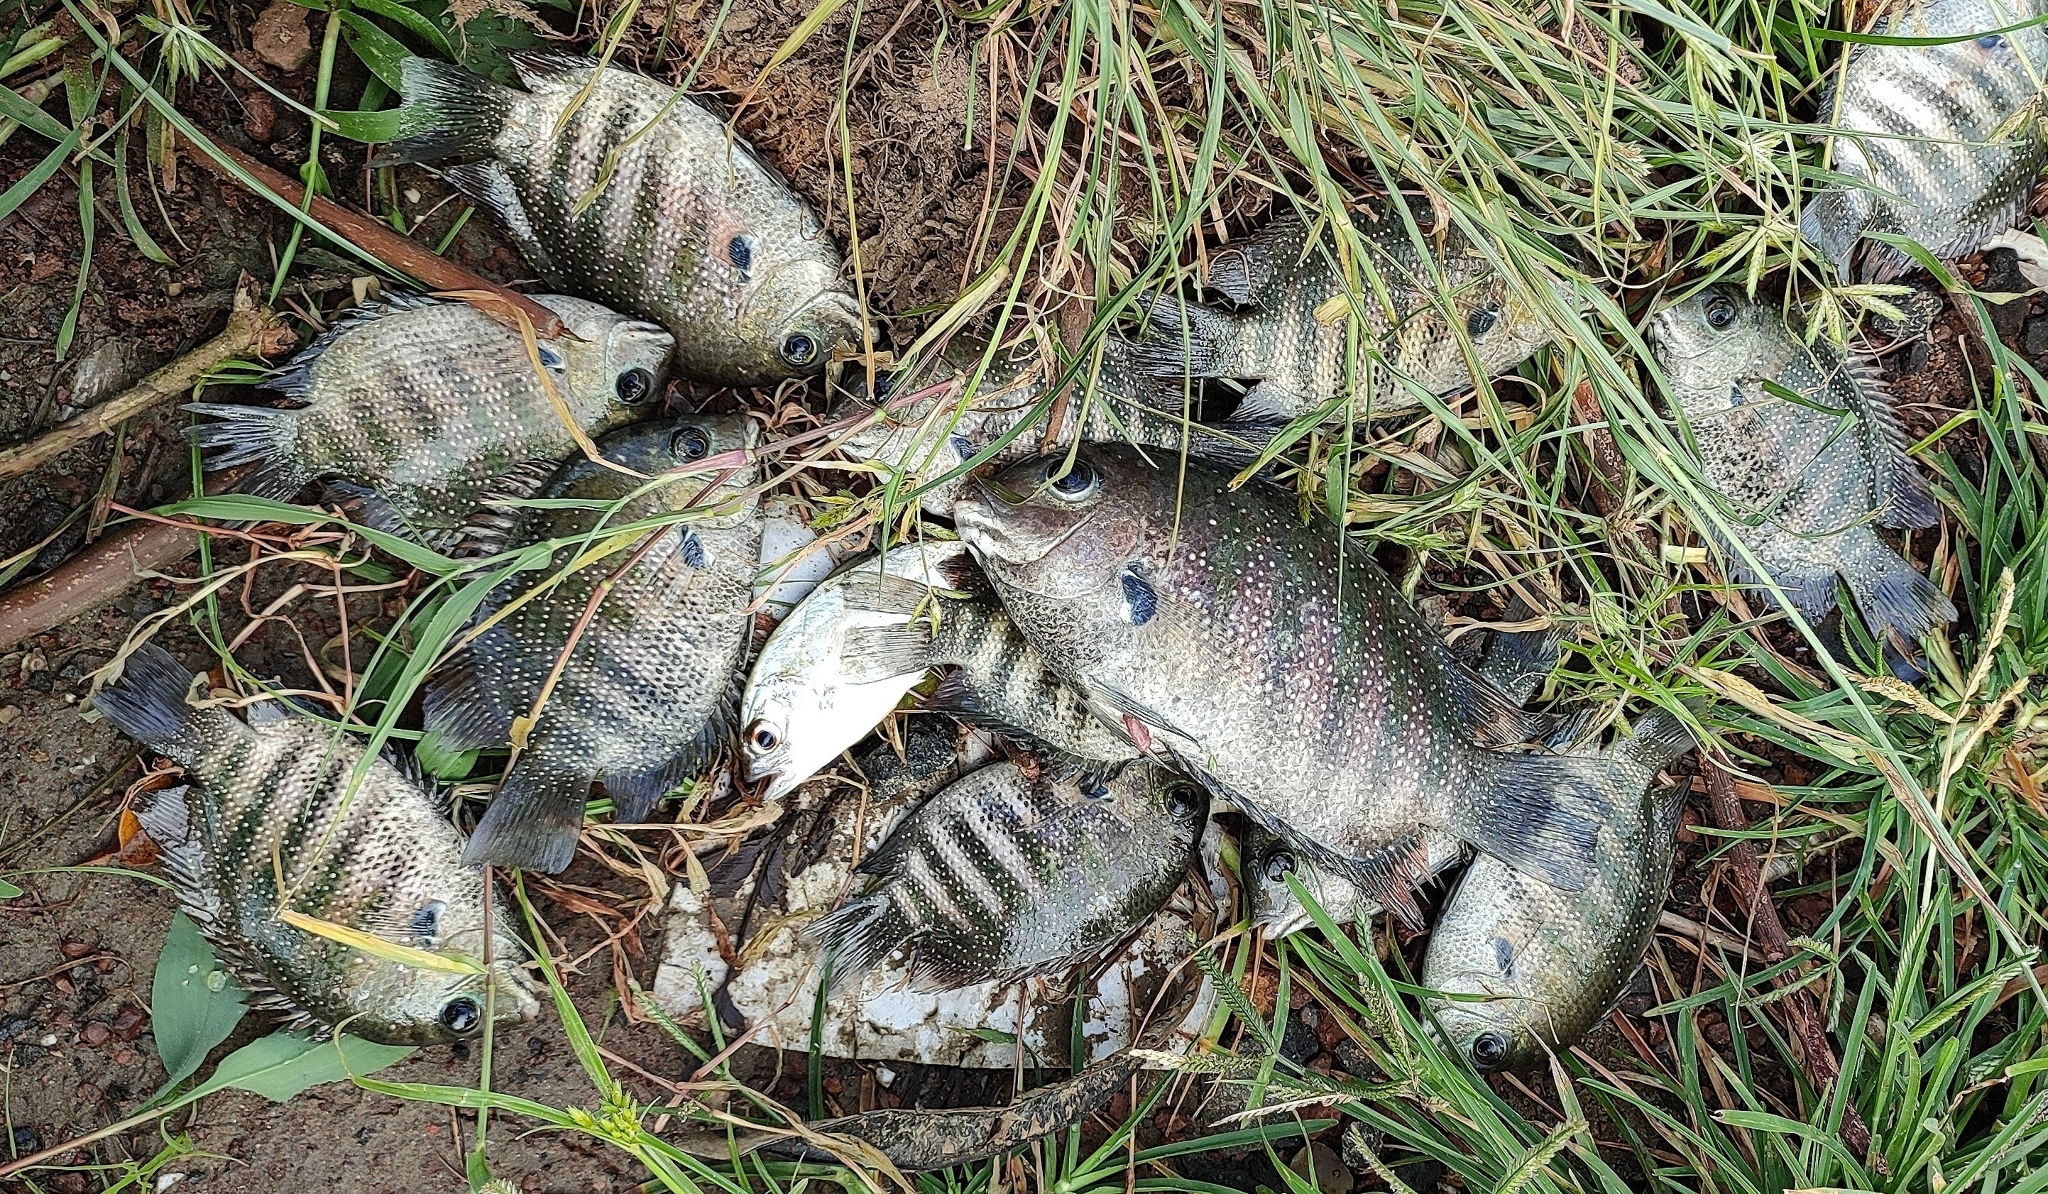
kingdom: Animalia
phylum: Chordata
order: Perciformes
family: Cichlidae
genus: Etroplus
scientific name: Etroplus suratensis
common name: Green chromide
